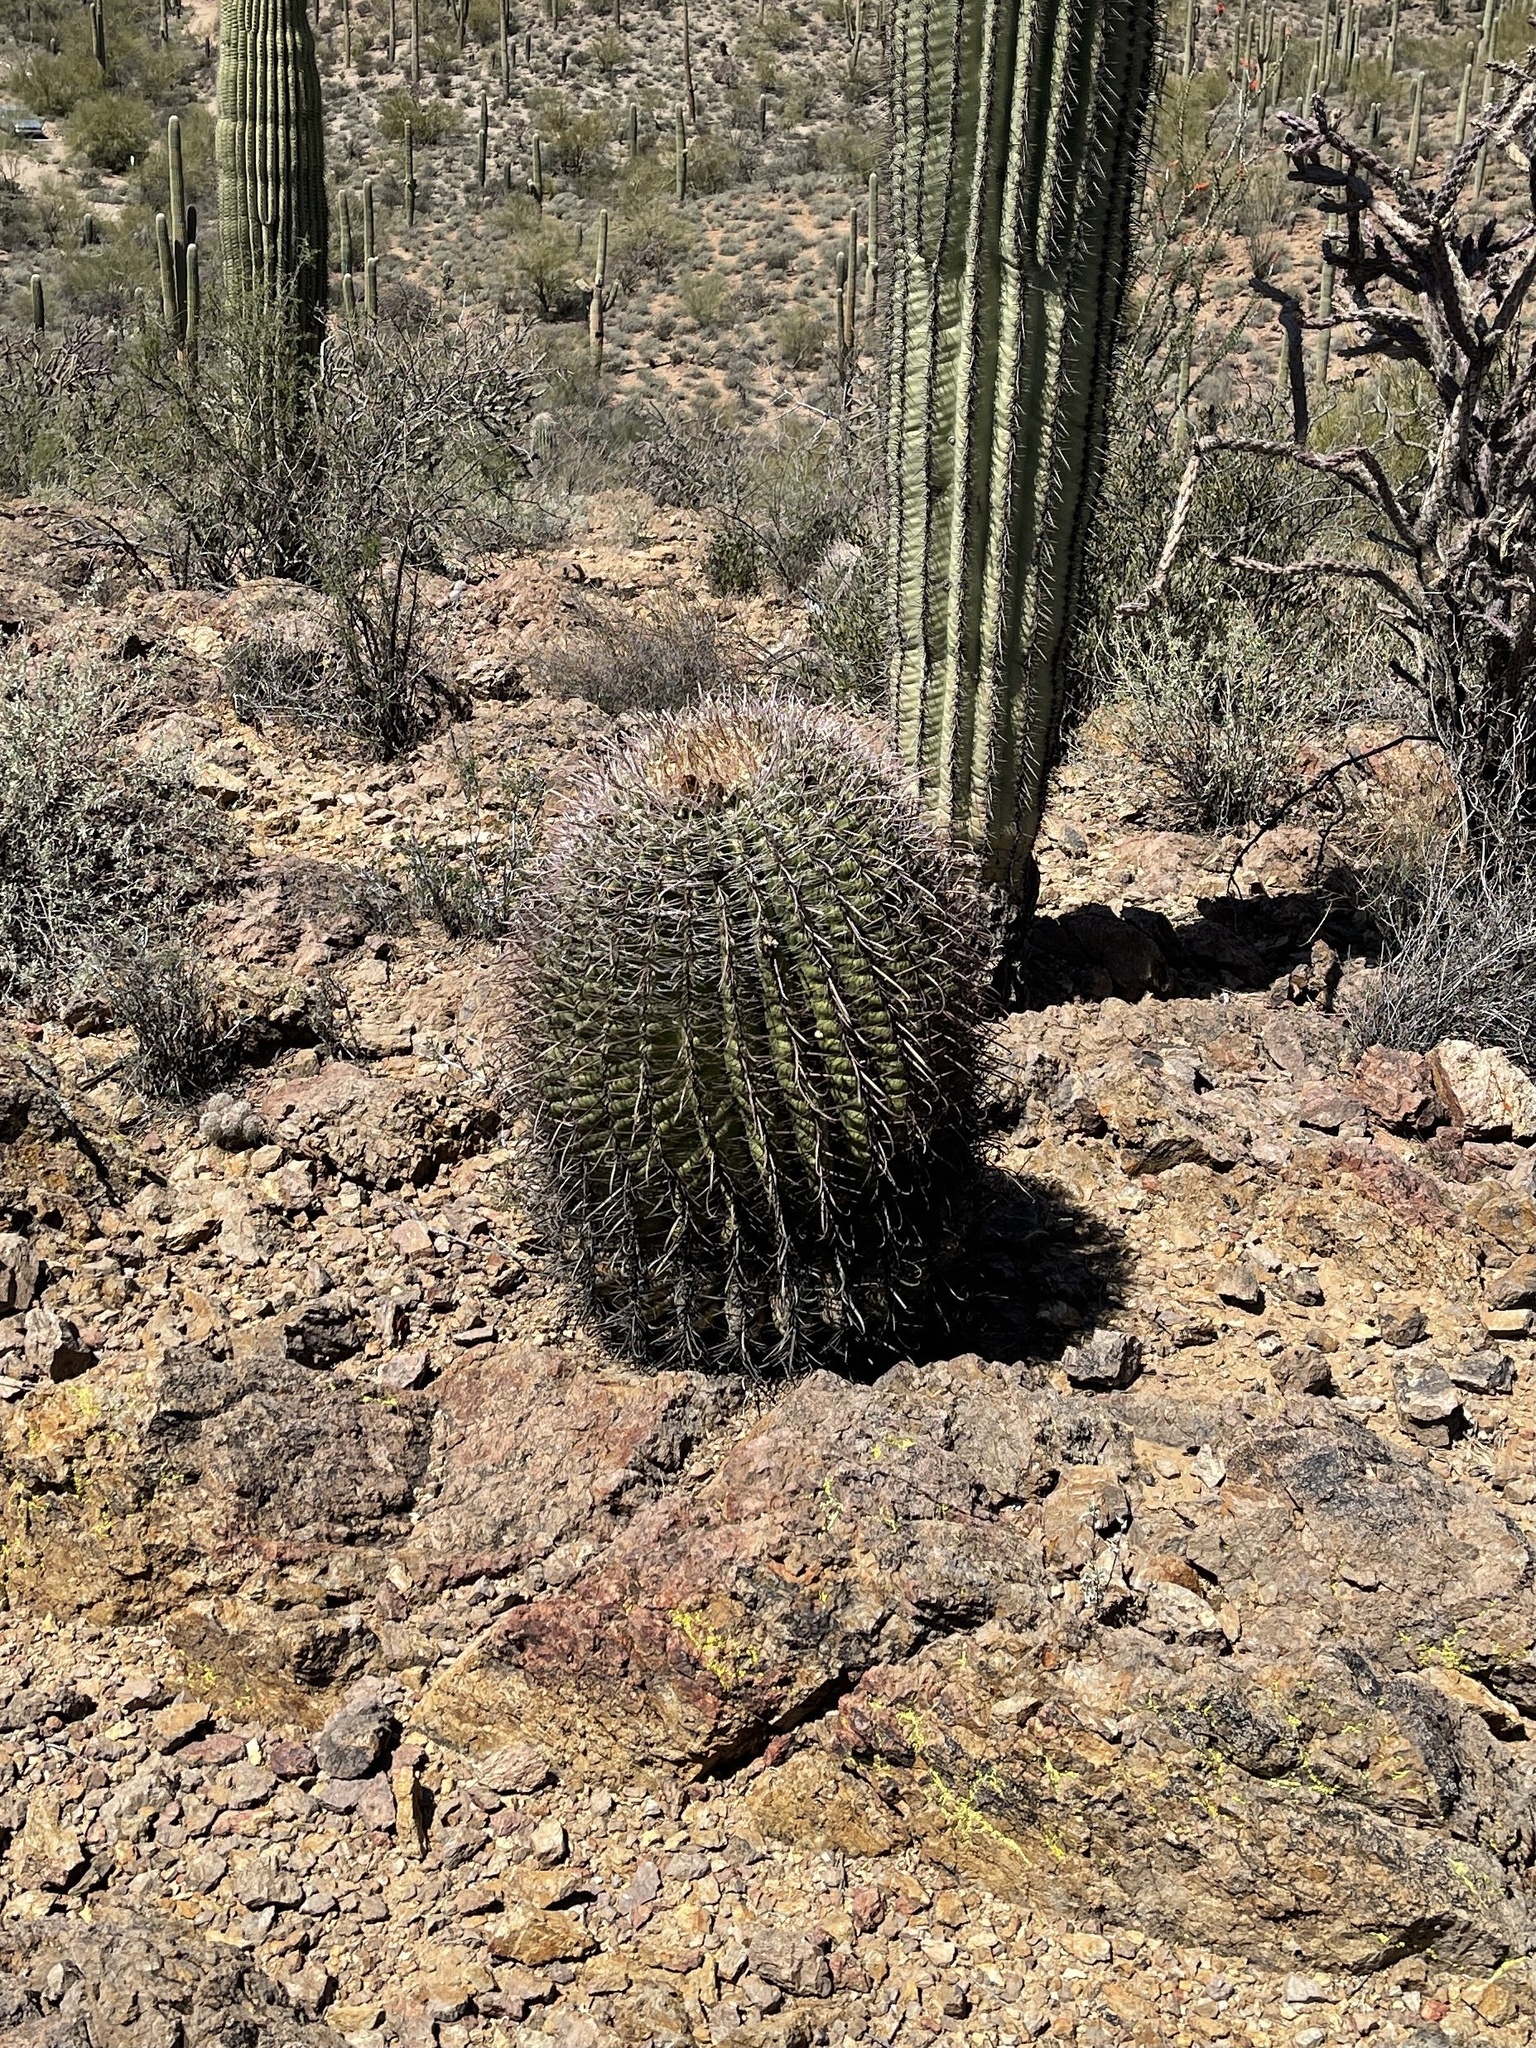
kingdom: Plantae
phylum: Tracheophyta
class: Magnoliopsida
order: Caryophyllales
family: Cactaceae
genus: Ferocactus
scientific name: Ferocactus wislizeni
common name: Candy barrel cactus
